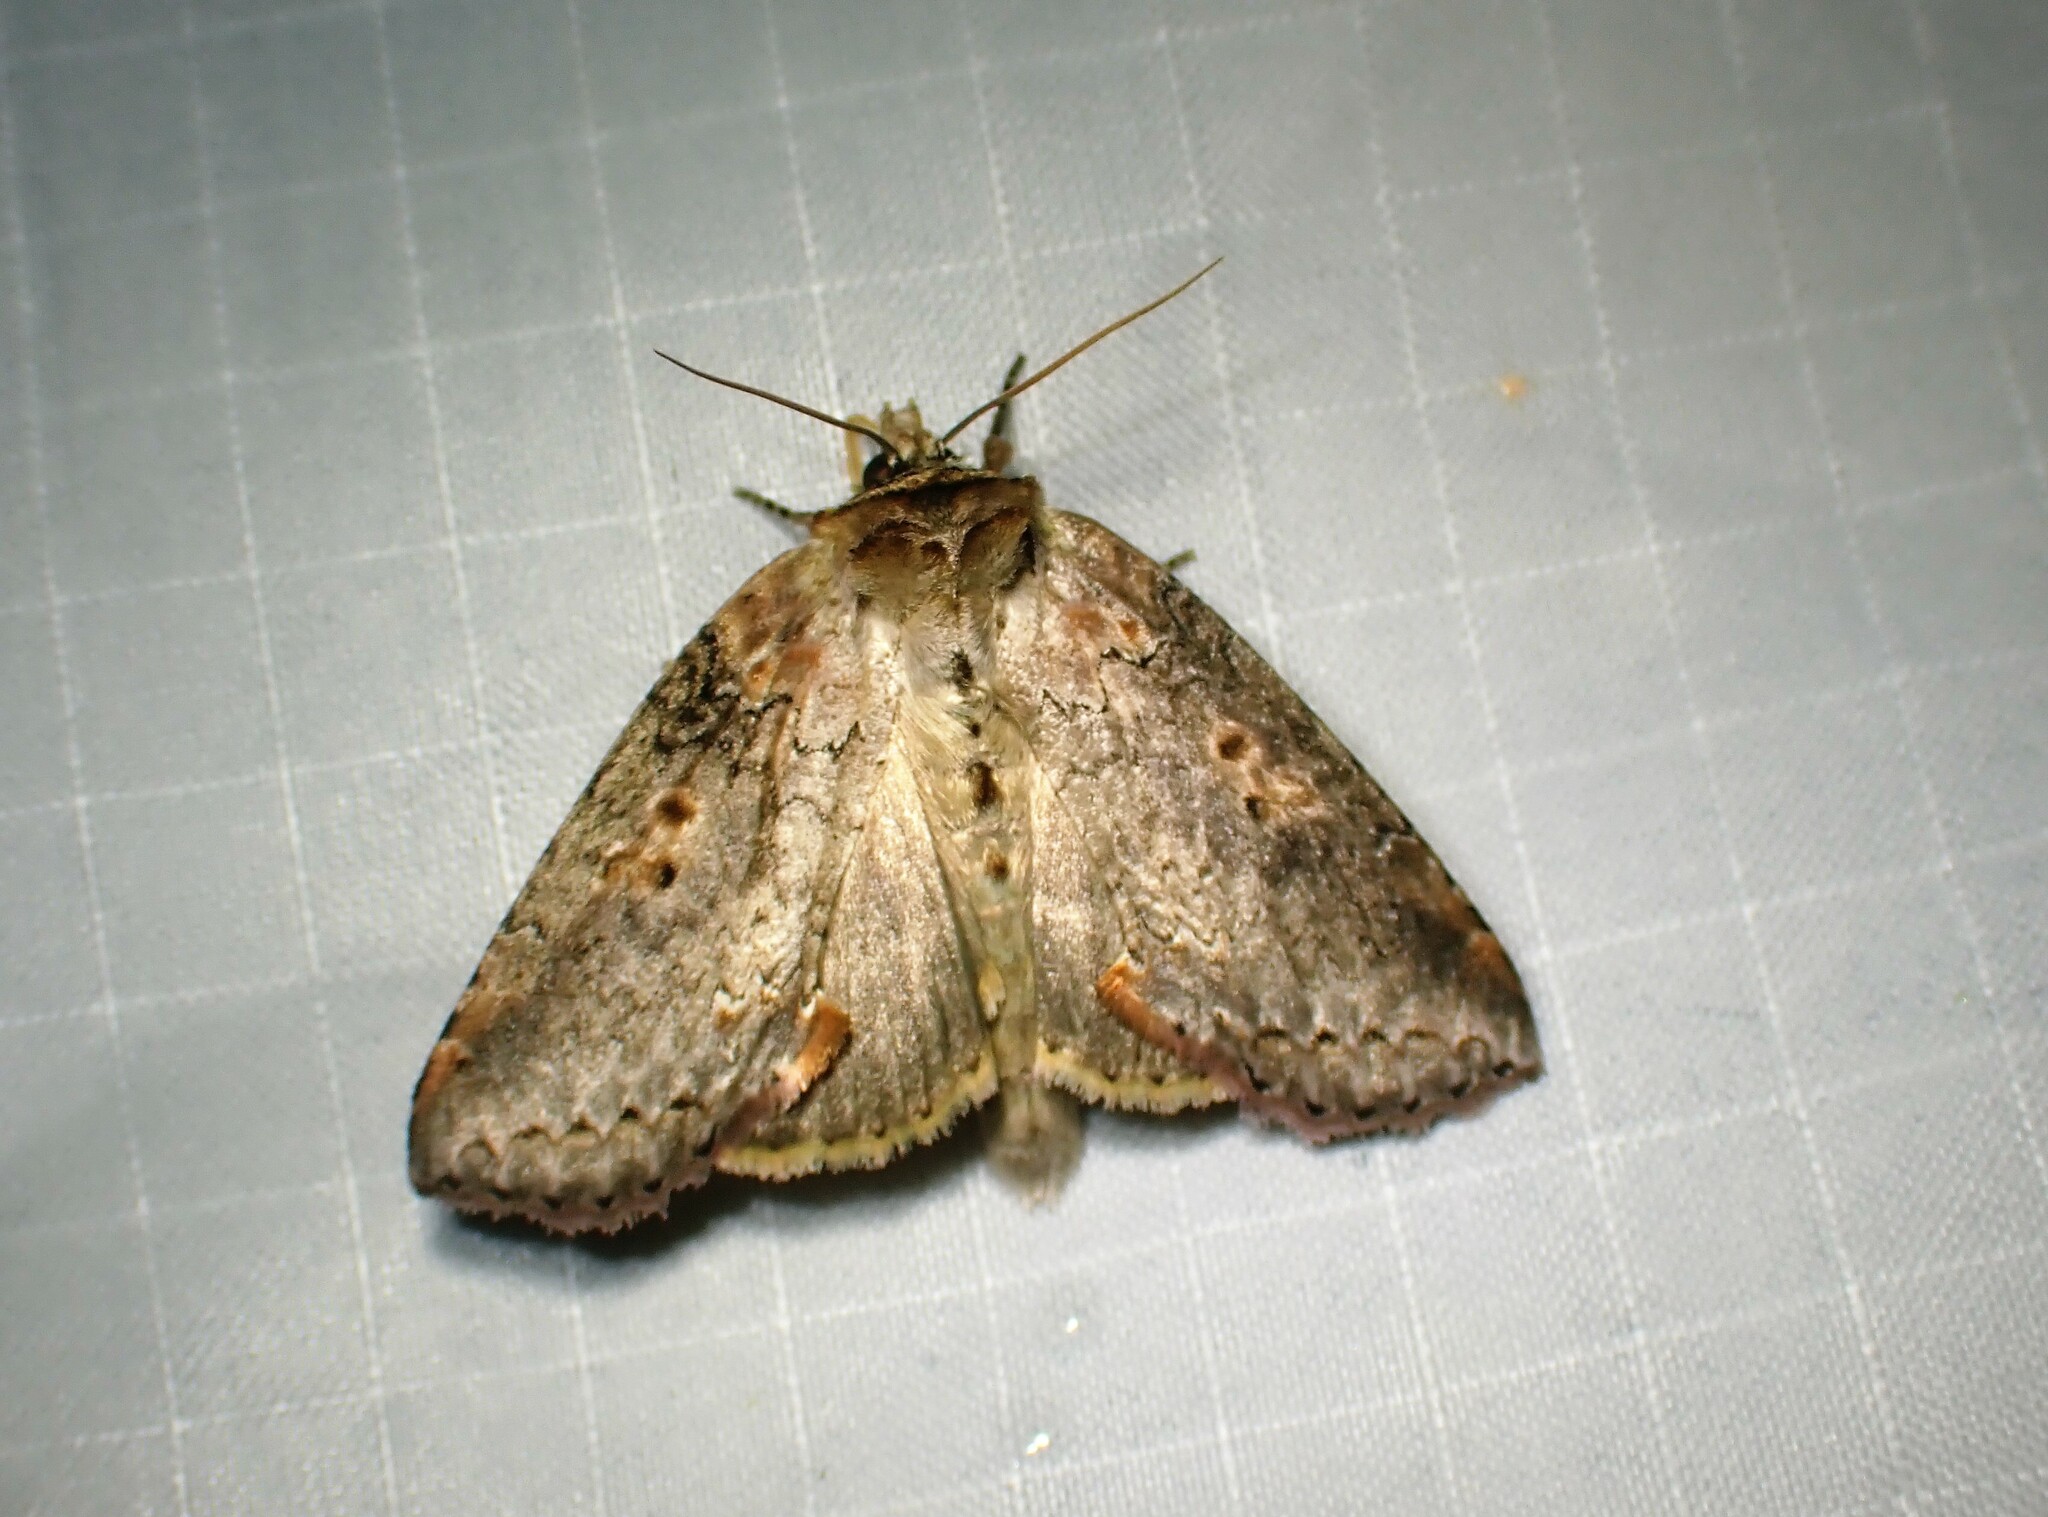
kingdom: Animalia
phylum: Arthropoda
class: Insecta
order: Lepidoptera
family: Drepanidae
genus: Pseudothyatira
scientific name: Pseudothyatira cymatophoroides
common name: Tufted thyatirid moth
